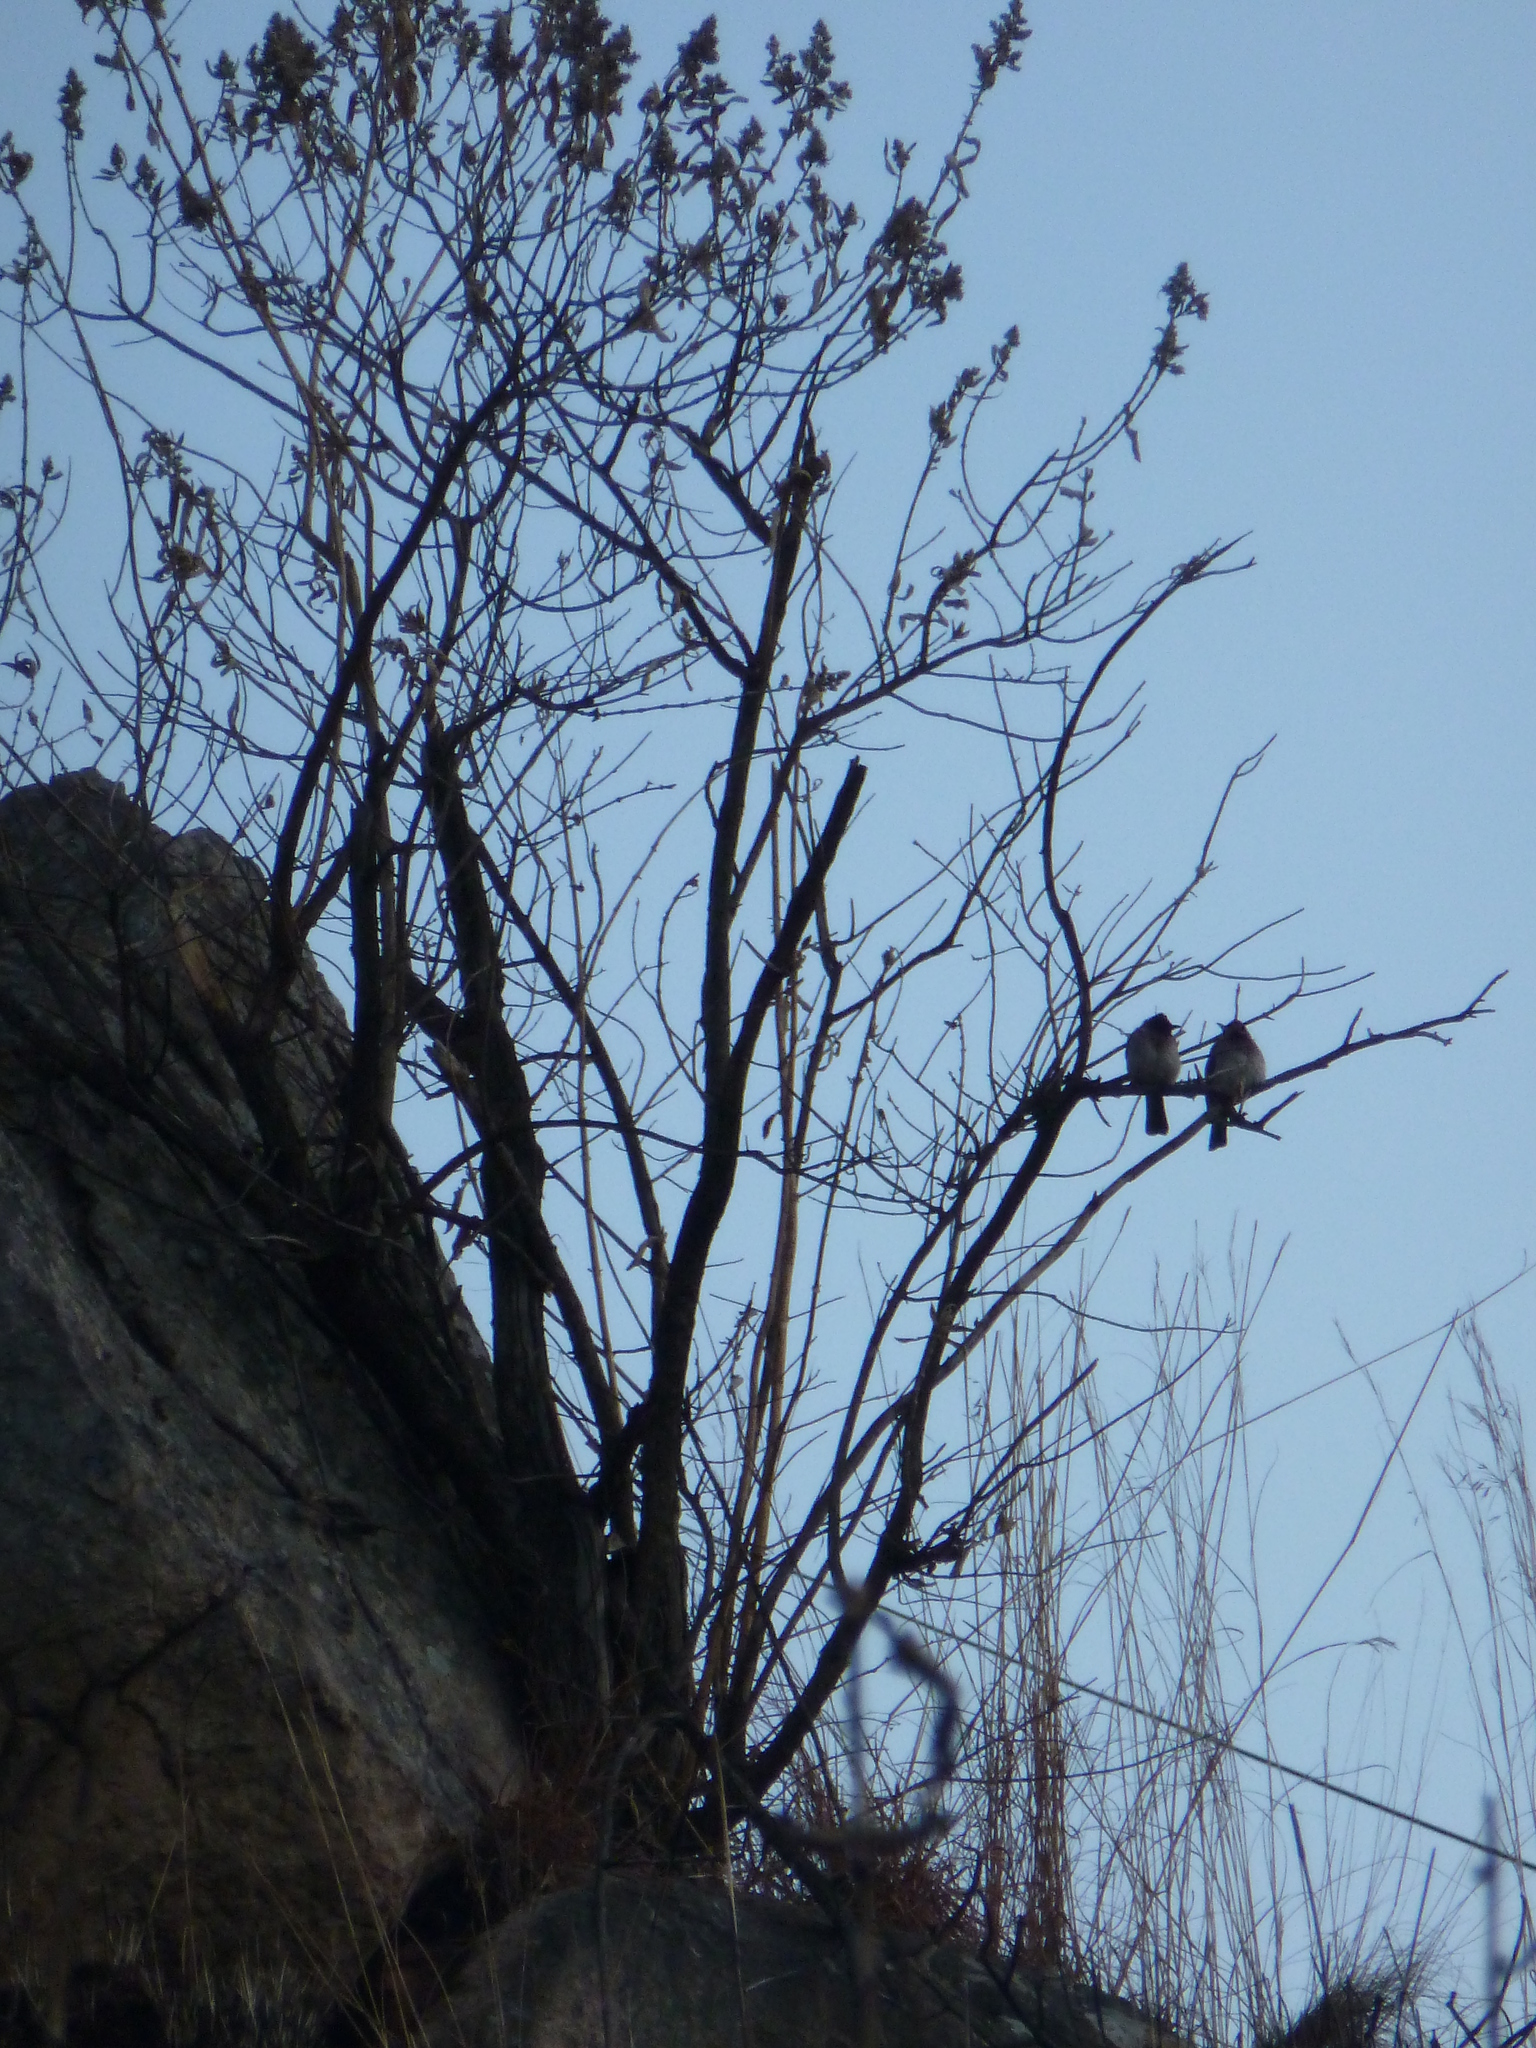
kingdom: Animalia
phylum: Chordata
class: Aves
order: Passeriformes
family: Pycnonotidae
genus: Pycnonotus
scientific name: Pycnonotus barbatus
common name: Common bulbul
